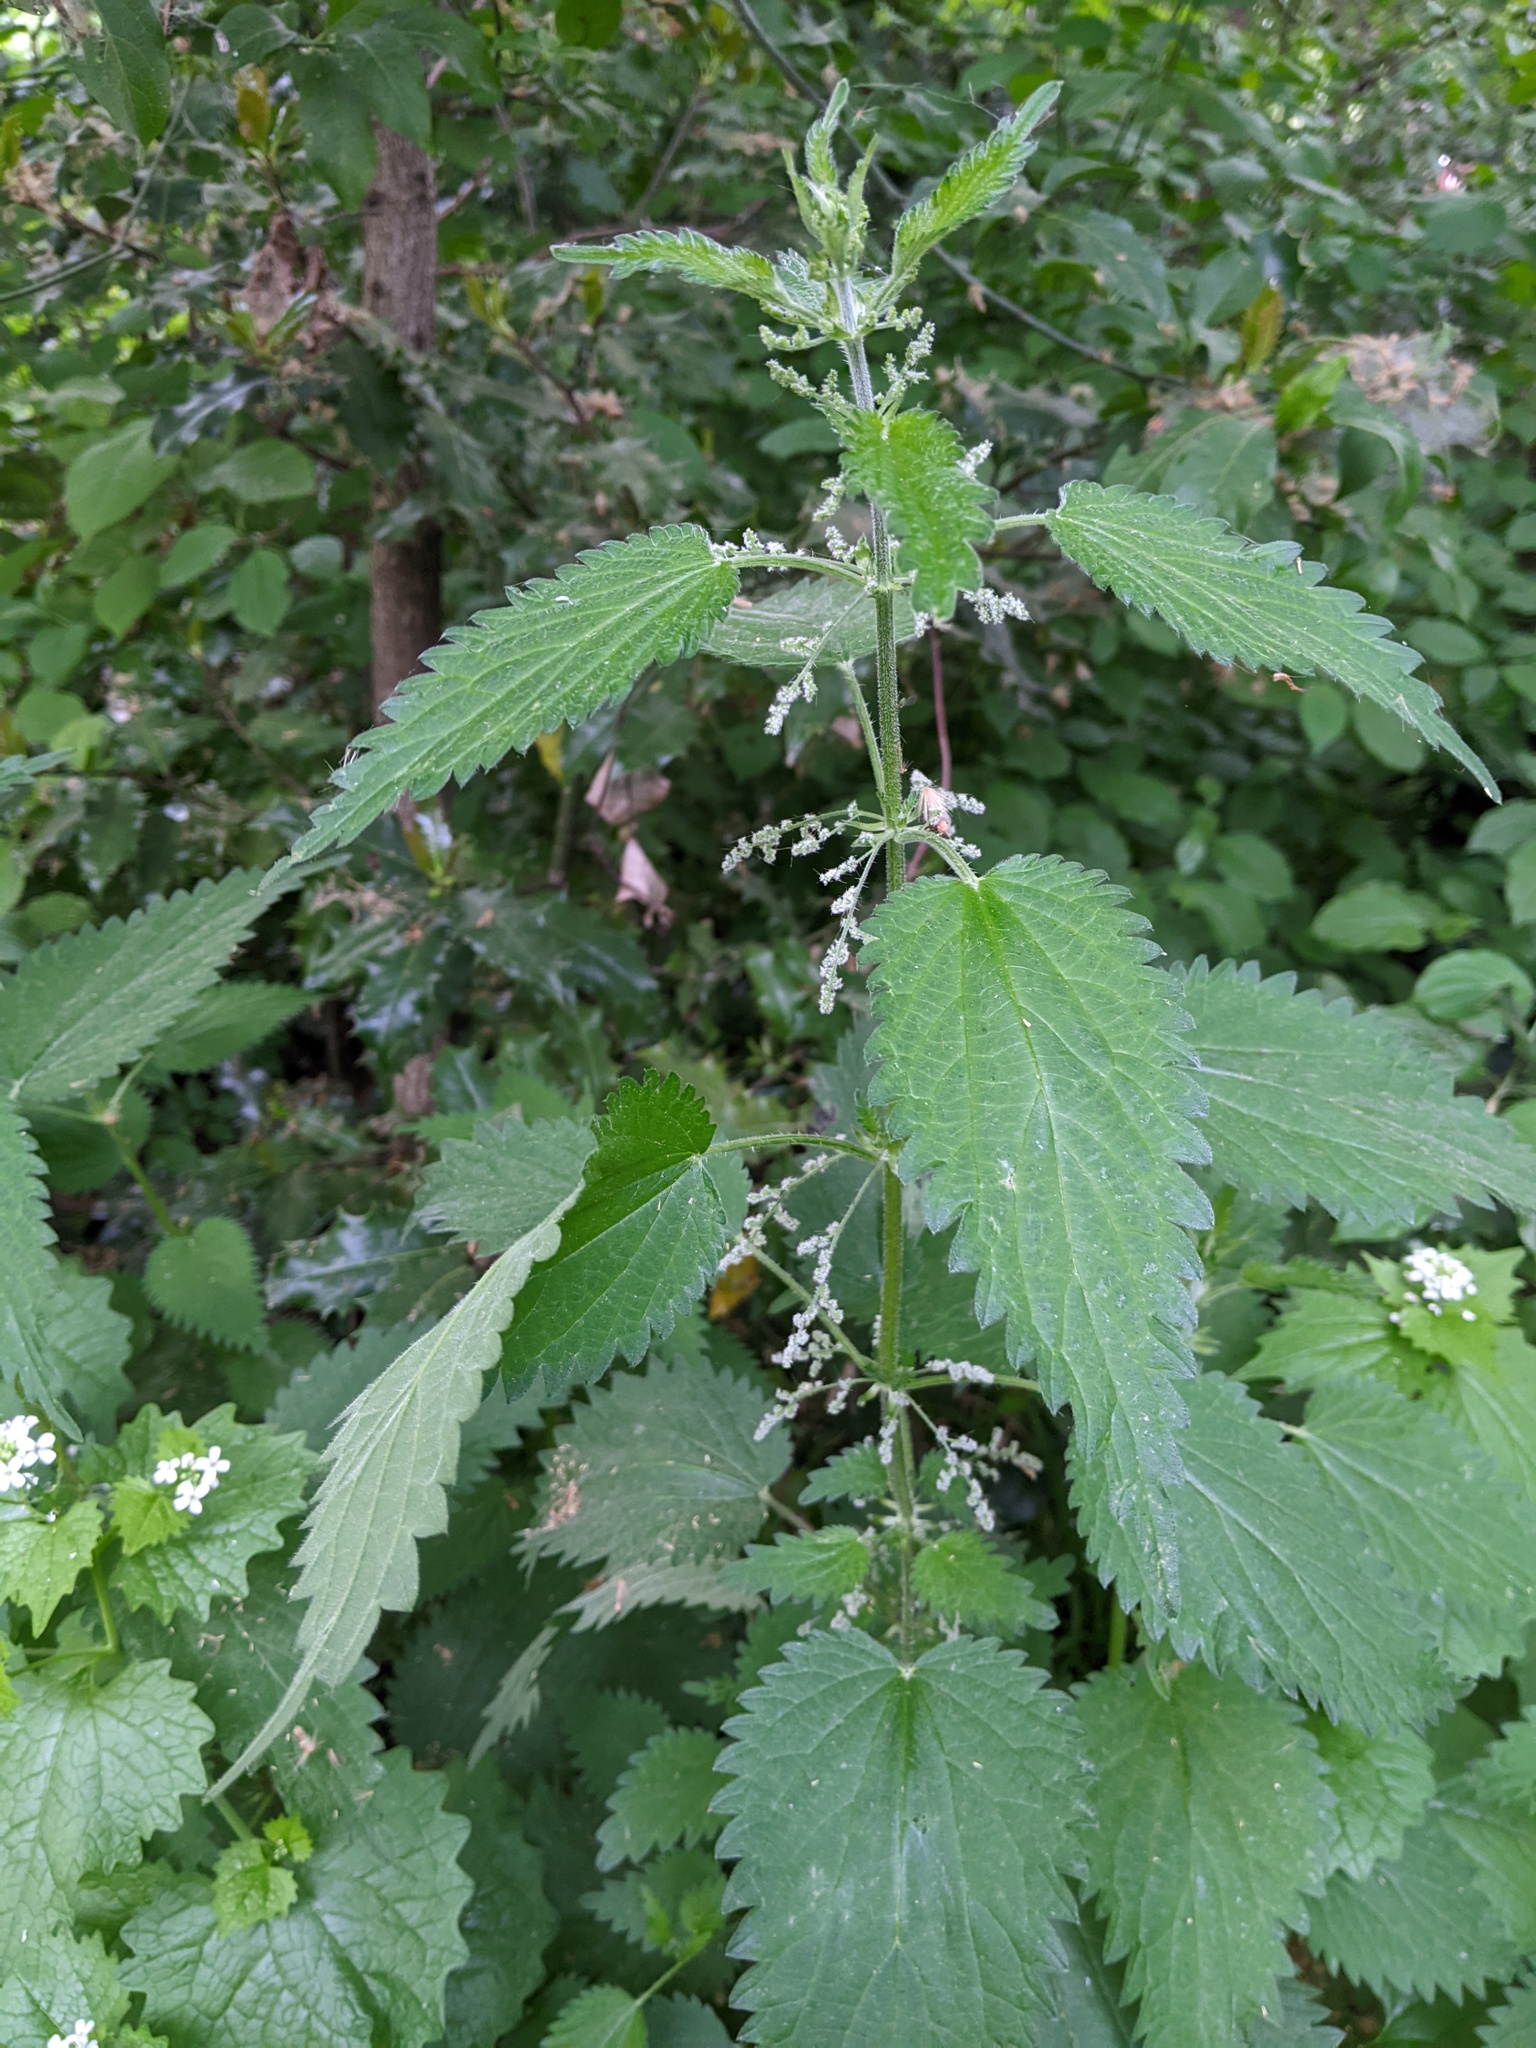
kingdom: Plantae
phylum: Tracheophyta
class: Magnoliopsida
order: Rosales
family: Urticaceae
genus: Urtica
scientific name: Urtica dioica
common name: Common nettle
